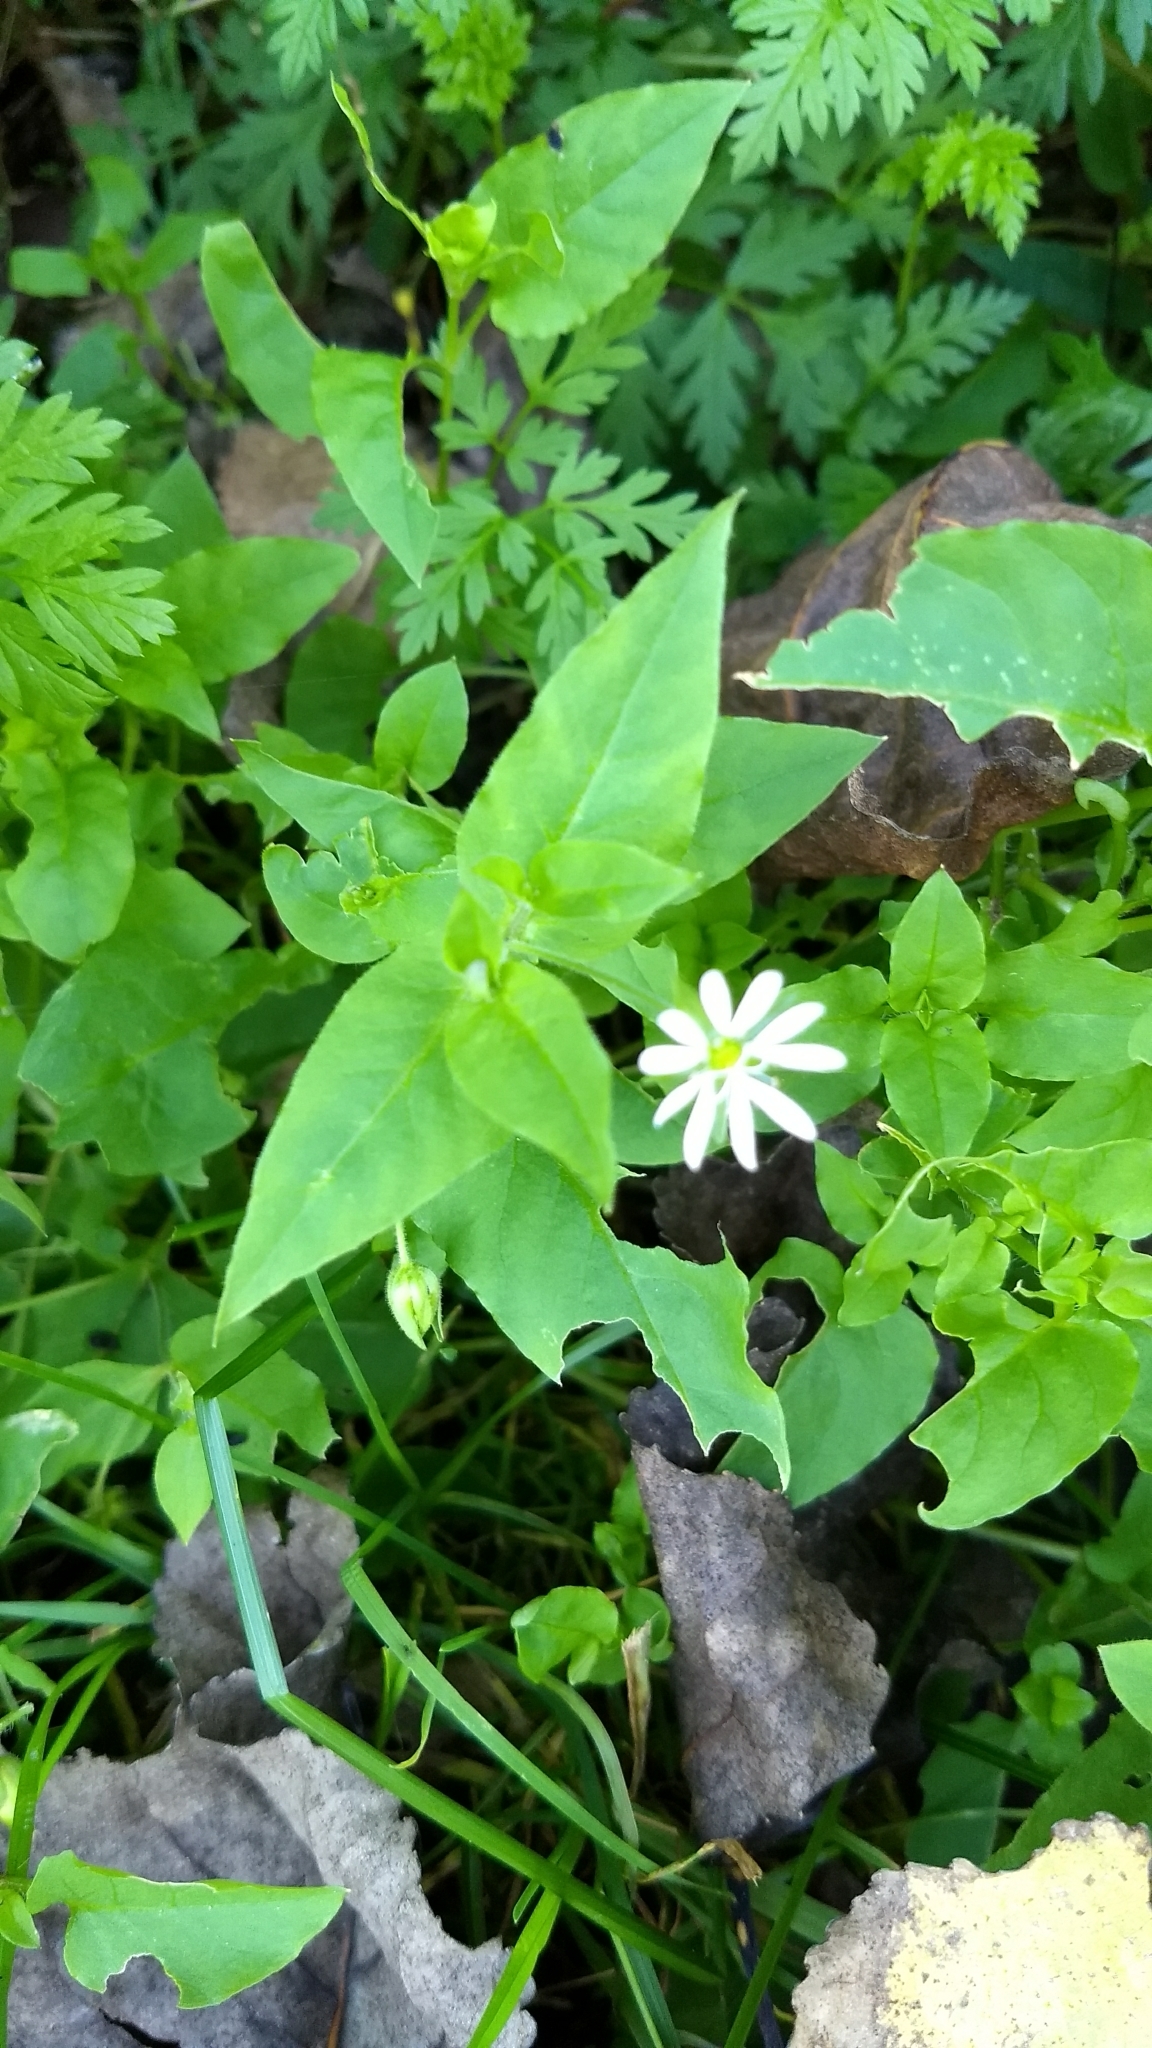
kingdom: Plantae
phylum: Tracheophyta
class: Magnoliopsida
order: Caryophyllales
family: Caryophyllaceae
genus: Stellaria
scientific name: Stellaria media
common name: Common chickweed
